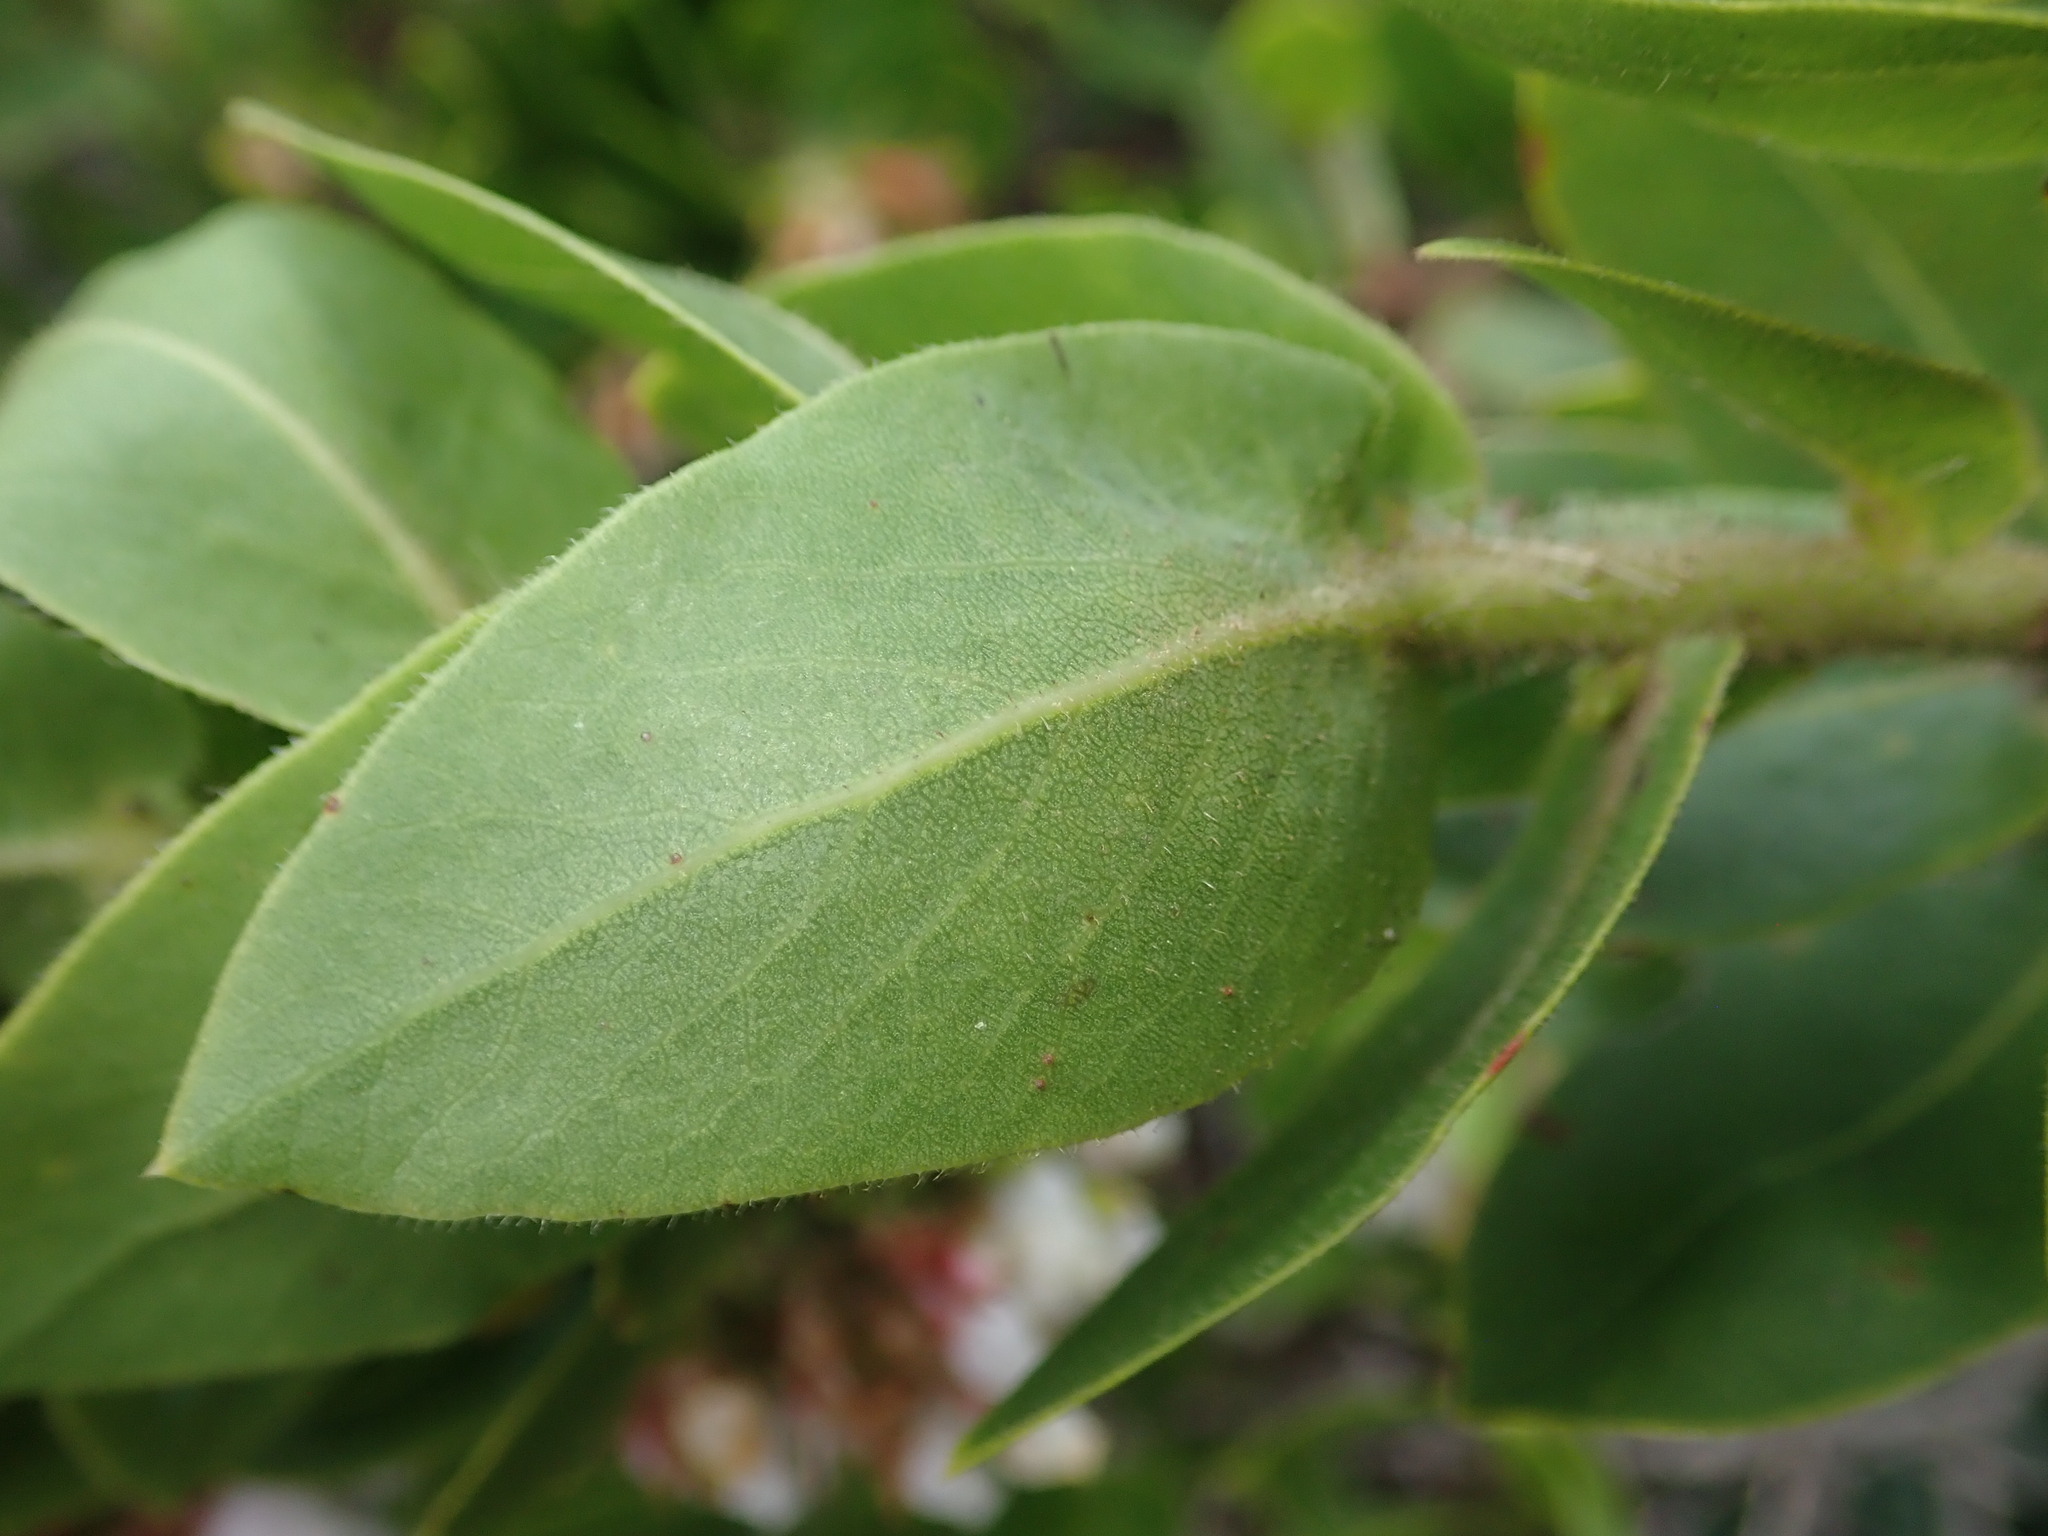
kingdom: Plantae
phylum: Tracheophyta
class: Magnoliopsida
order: Ericales
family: Ericaceae
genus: Arctostaphylos
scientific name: Arctostaphylos montaraensis
